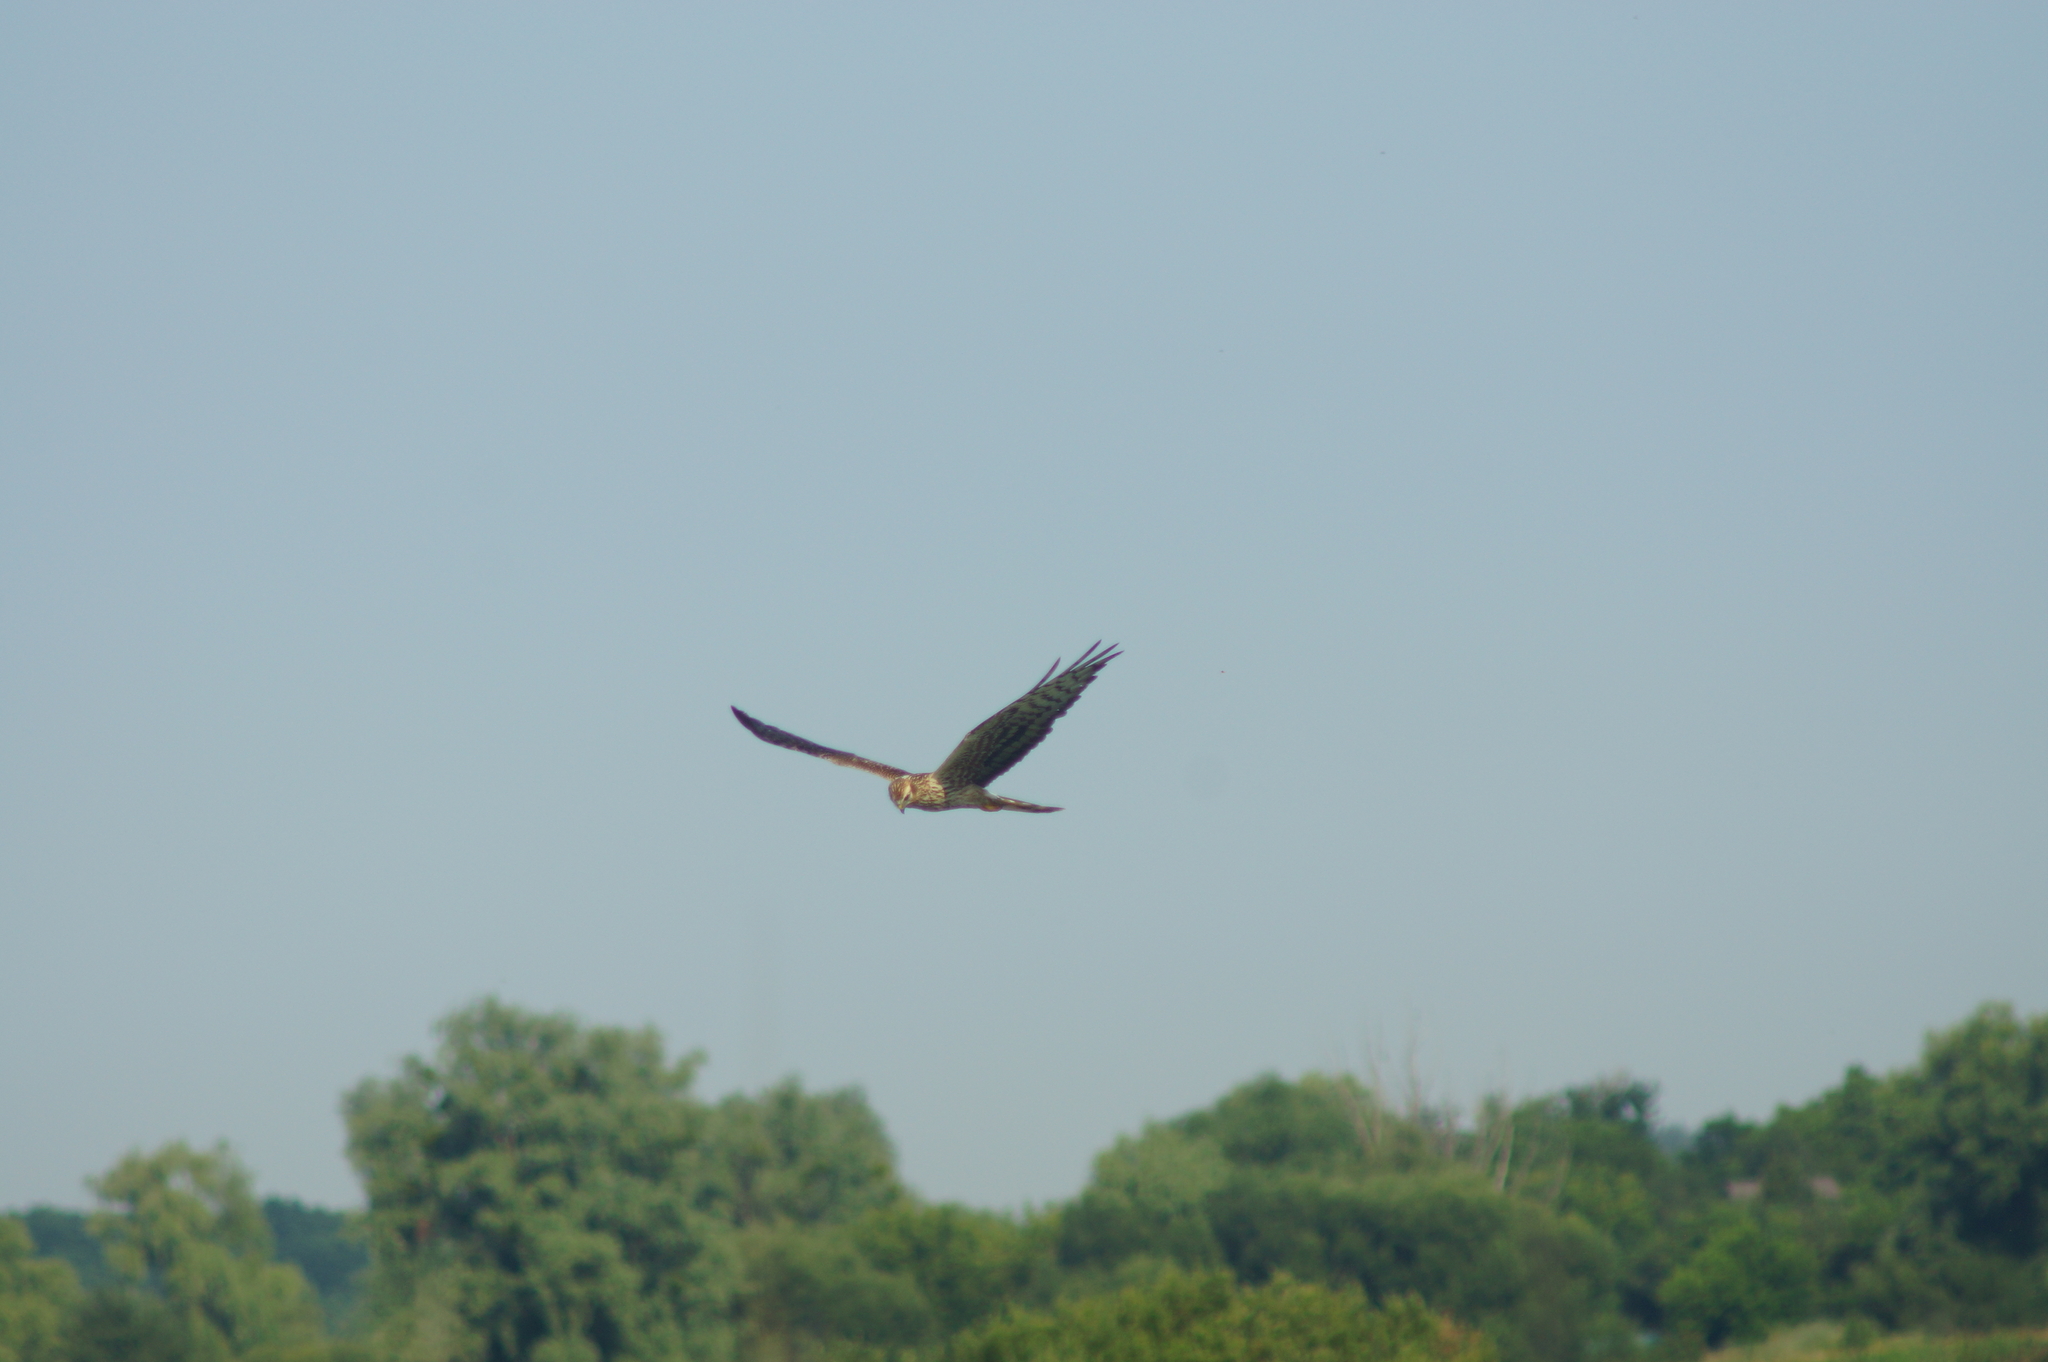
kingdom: Animalia
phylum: Chordata
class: Aves
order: Accipitriformes
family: Accipitridae
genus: Circus
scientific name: Circus pygargus
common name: Montagu's harrier
